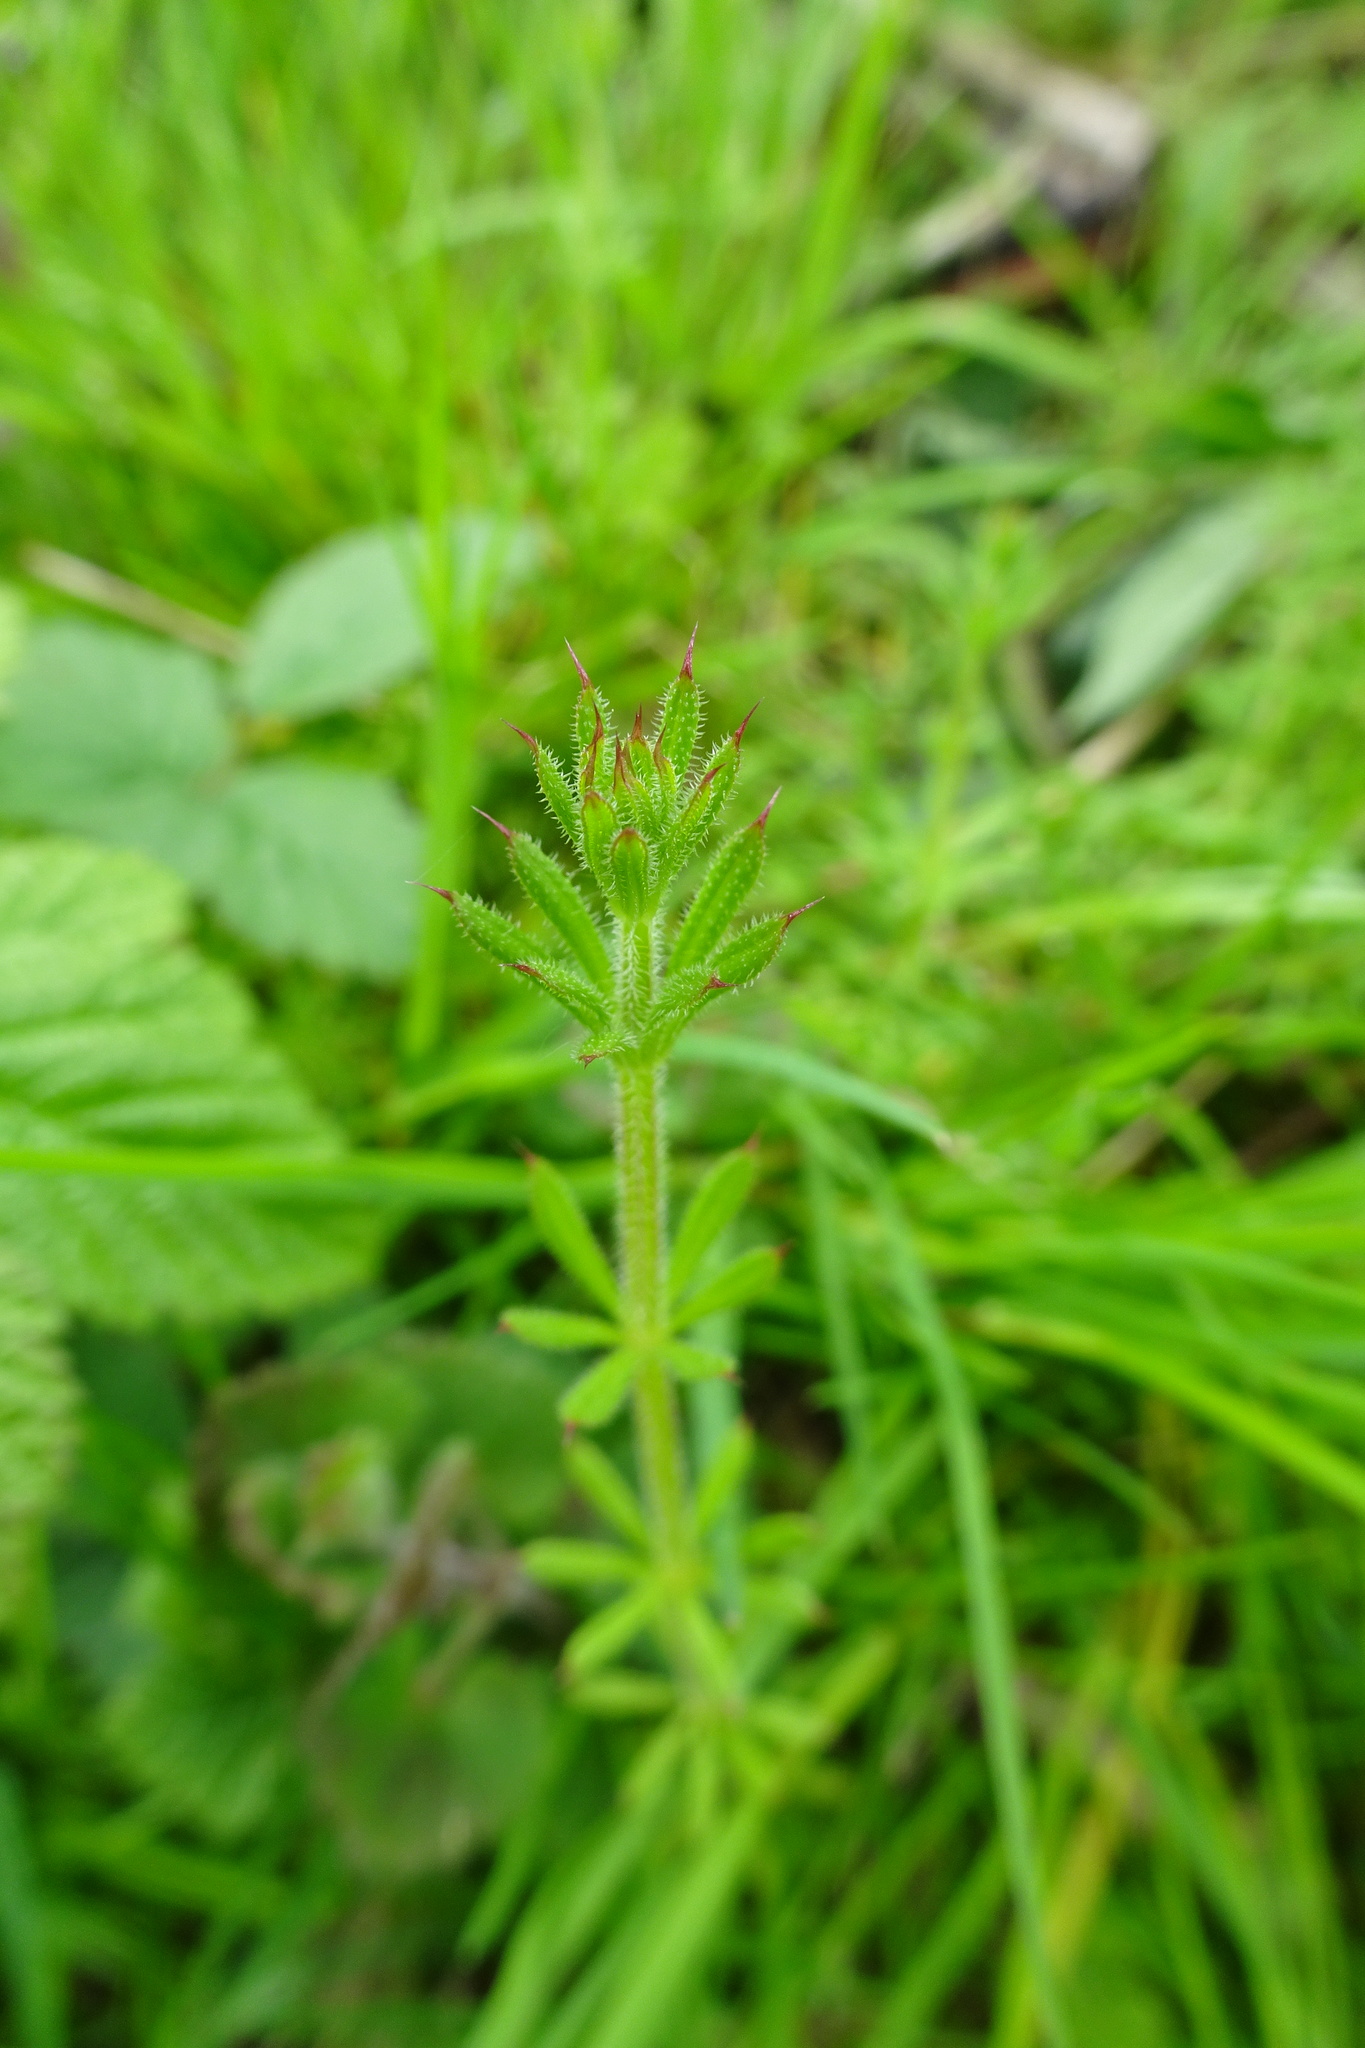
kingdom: Plantae
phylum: Tracheophyta
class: Magnoliopsida
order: Gentianales
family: Rubiaceae
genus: Galium
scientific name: Galium aparine
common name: Cleavers
